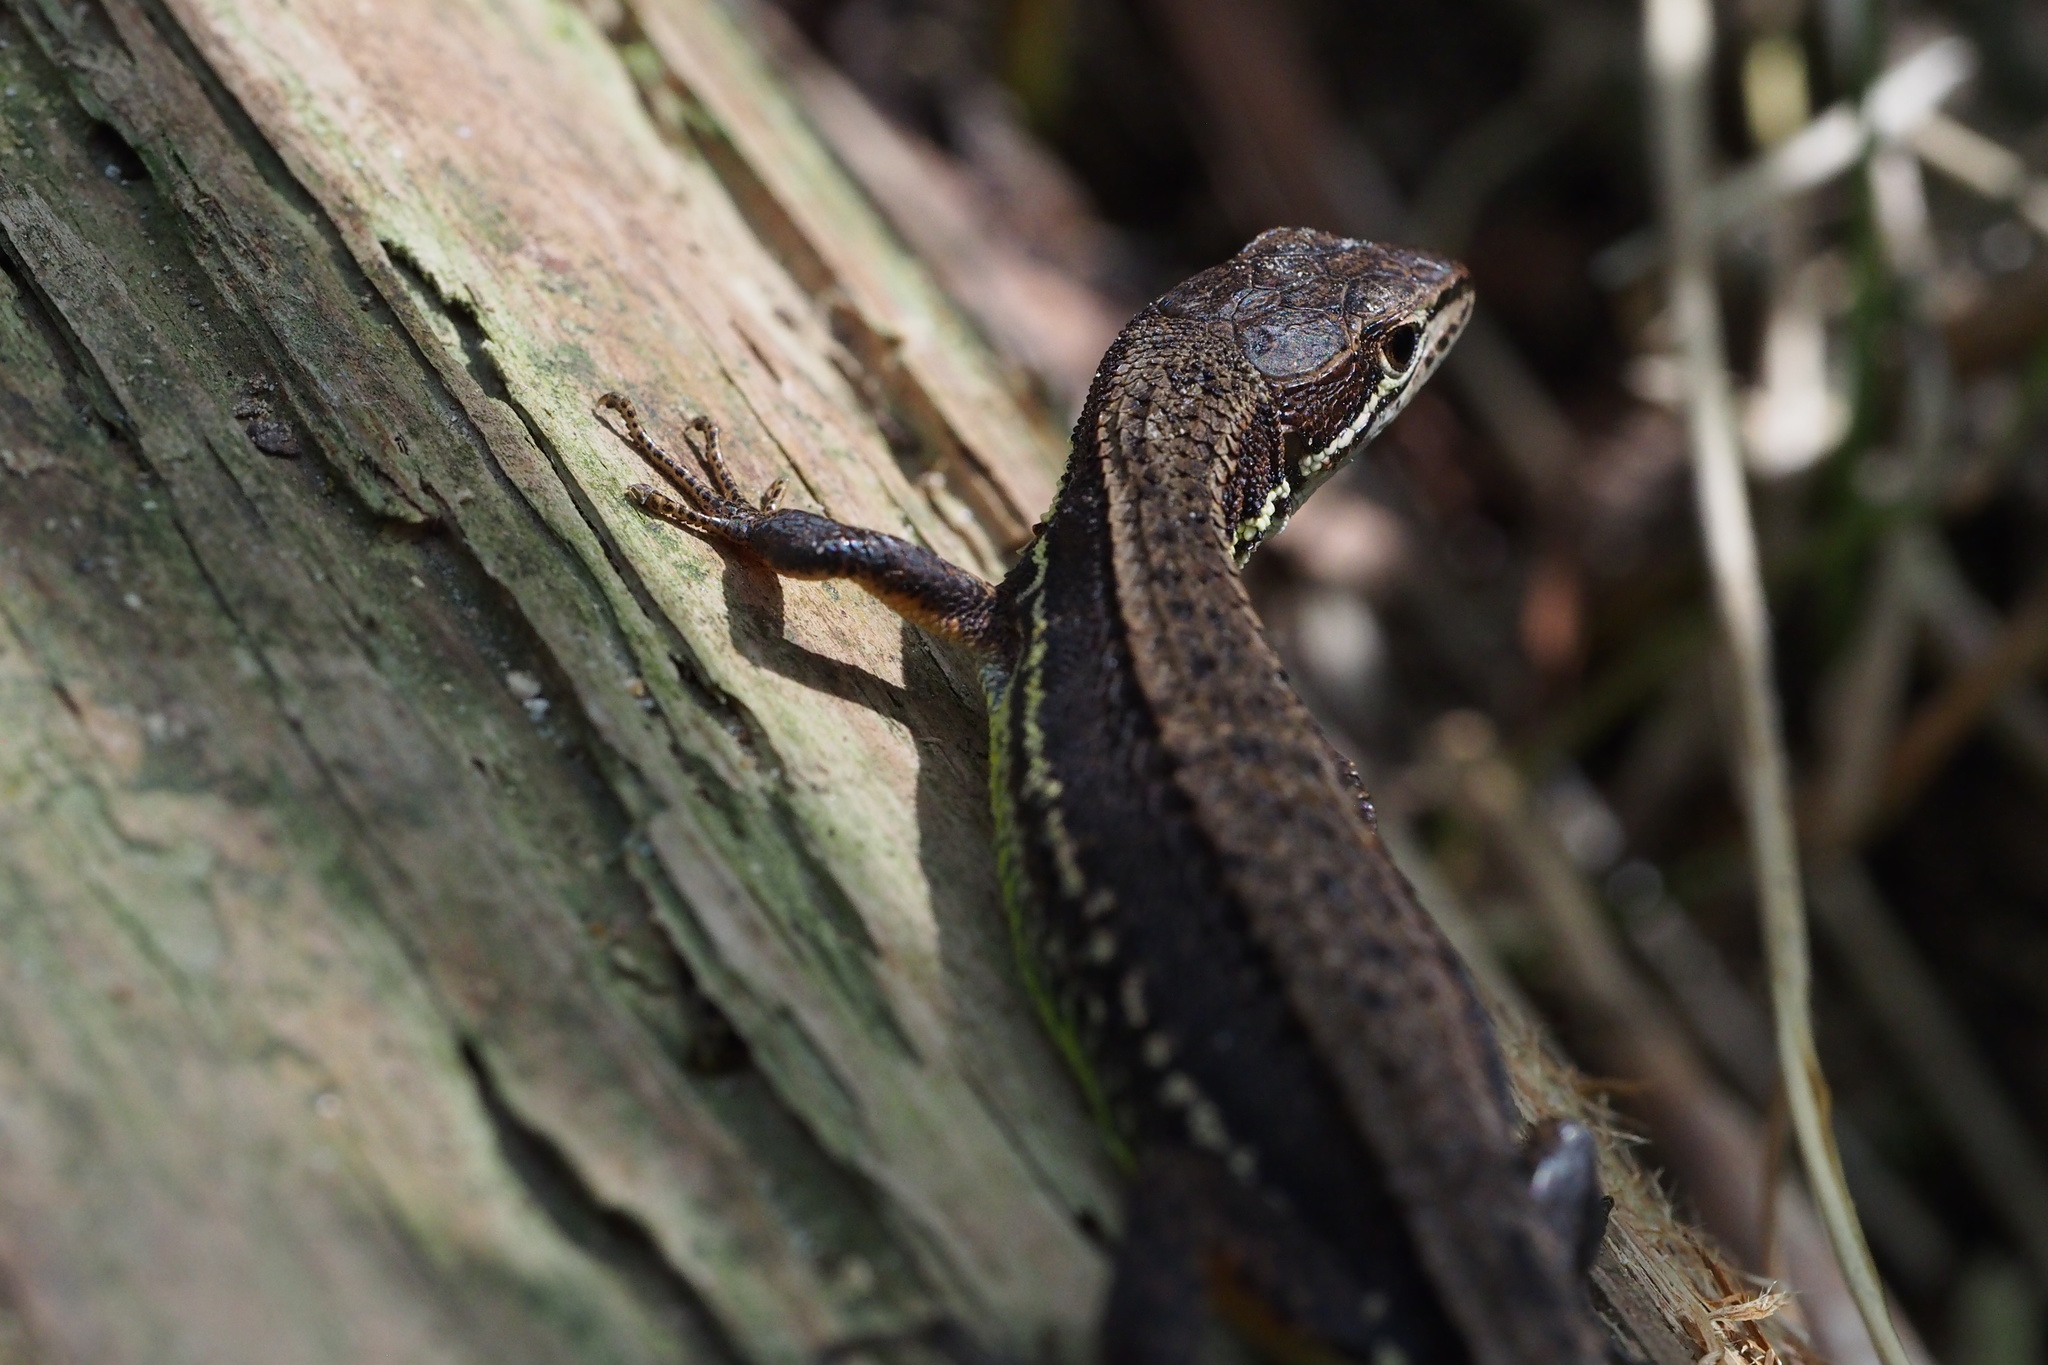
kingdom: Animalia
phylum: Chordata
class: Squamata
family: Lacertidae
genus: Takydromus
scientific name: Takydromus tachydromoides
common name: Japanese grass lizard
